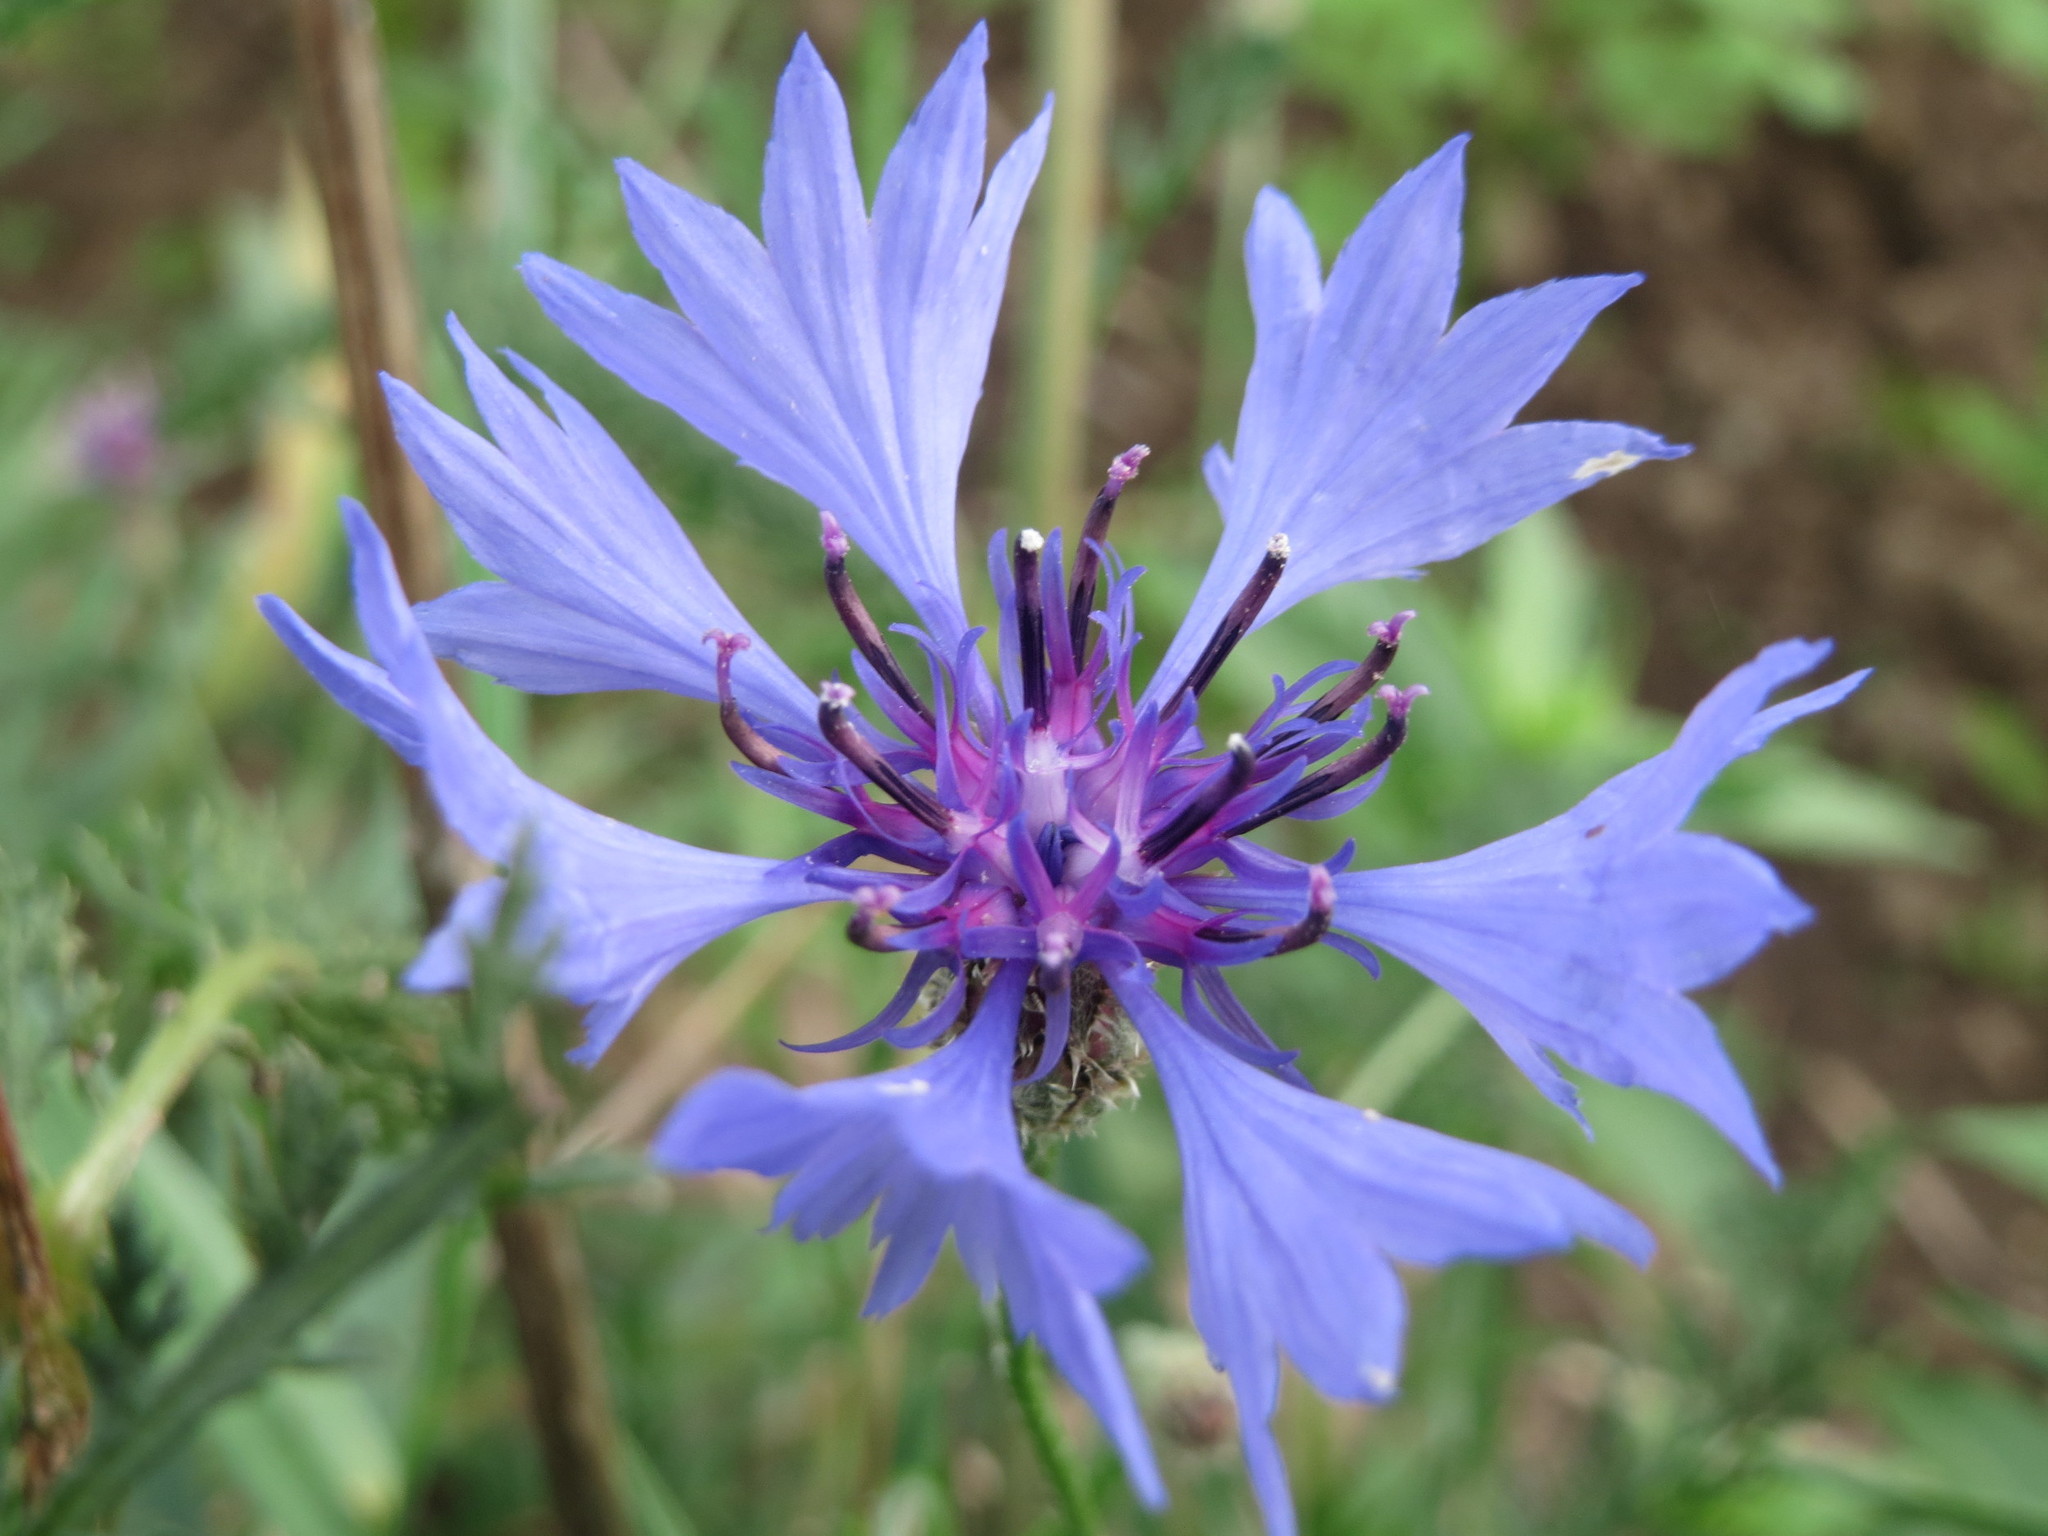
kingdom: Plantae
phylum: Tracheophyta
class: Magnoliopsida
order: Asterales
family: Asteraceae
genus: Centaurea
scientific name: Centaurea cyanus
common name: Cornflower
